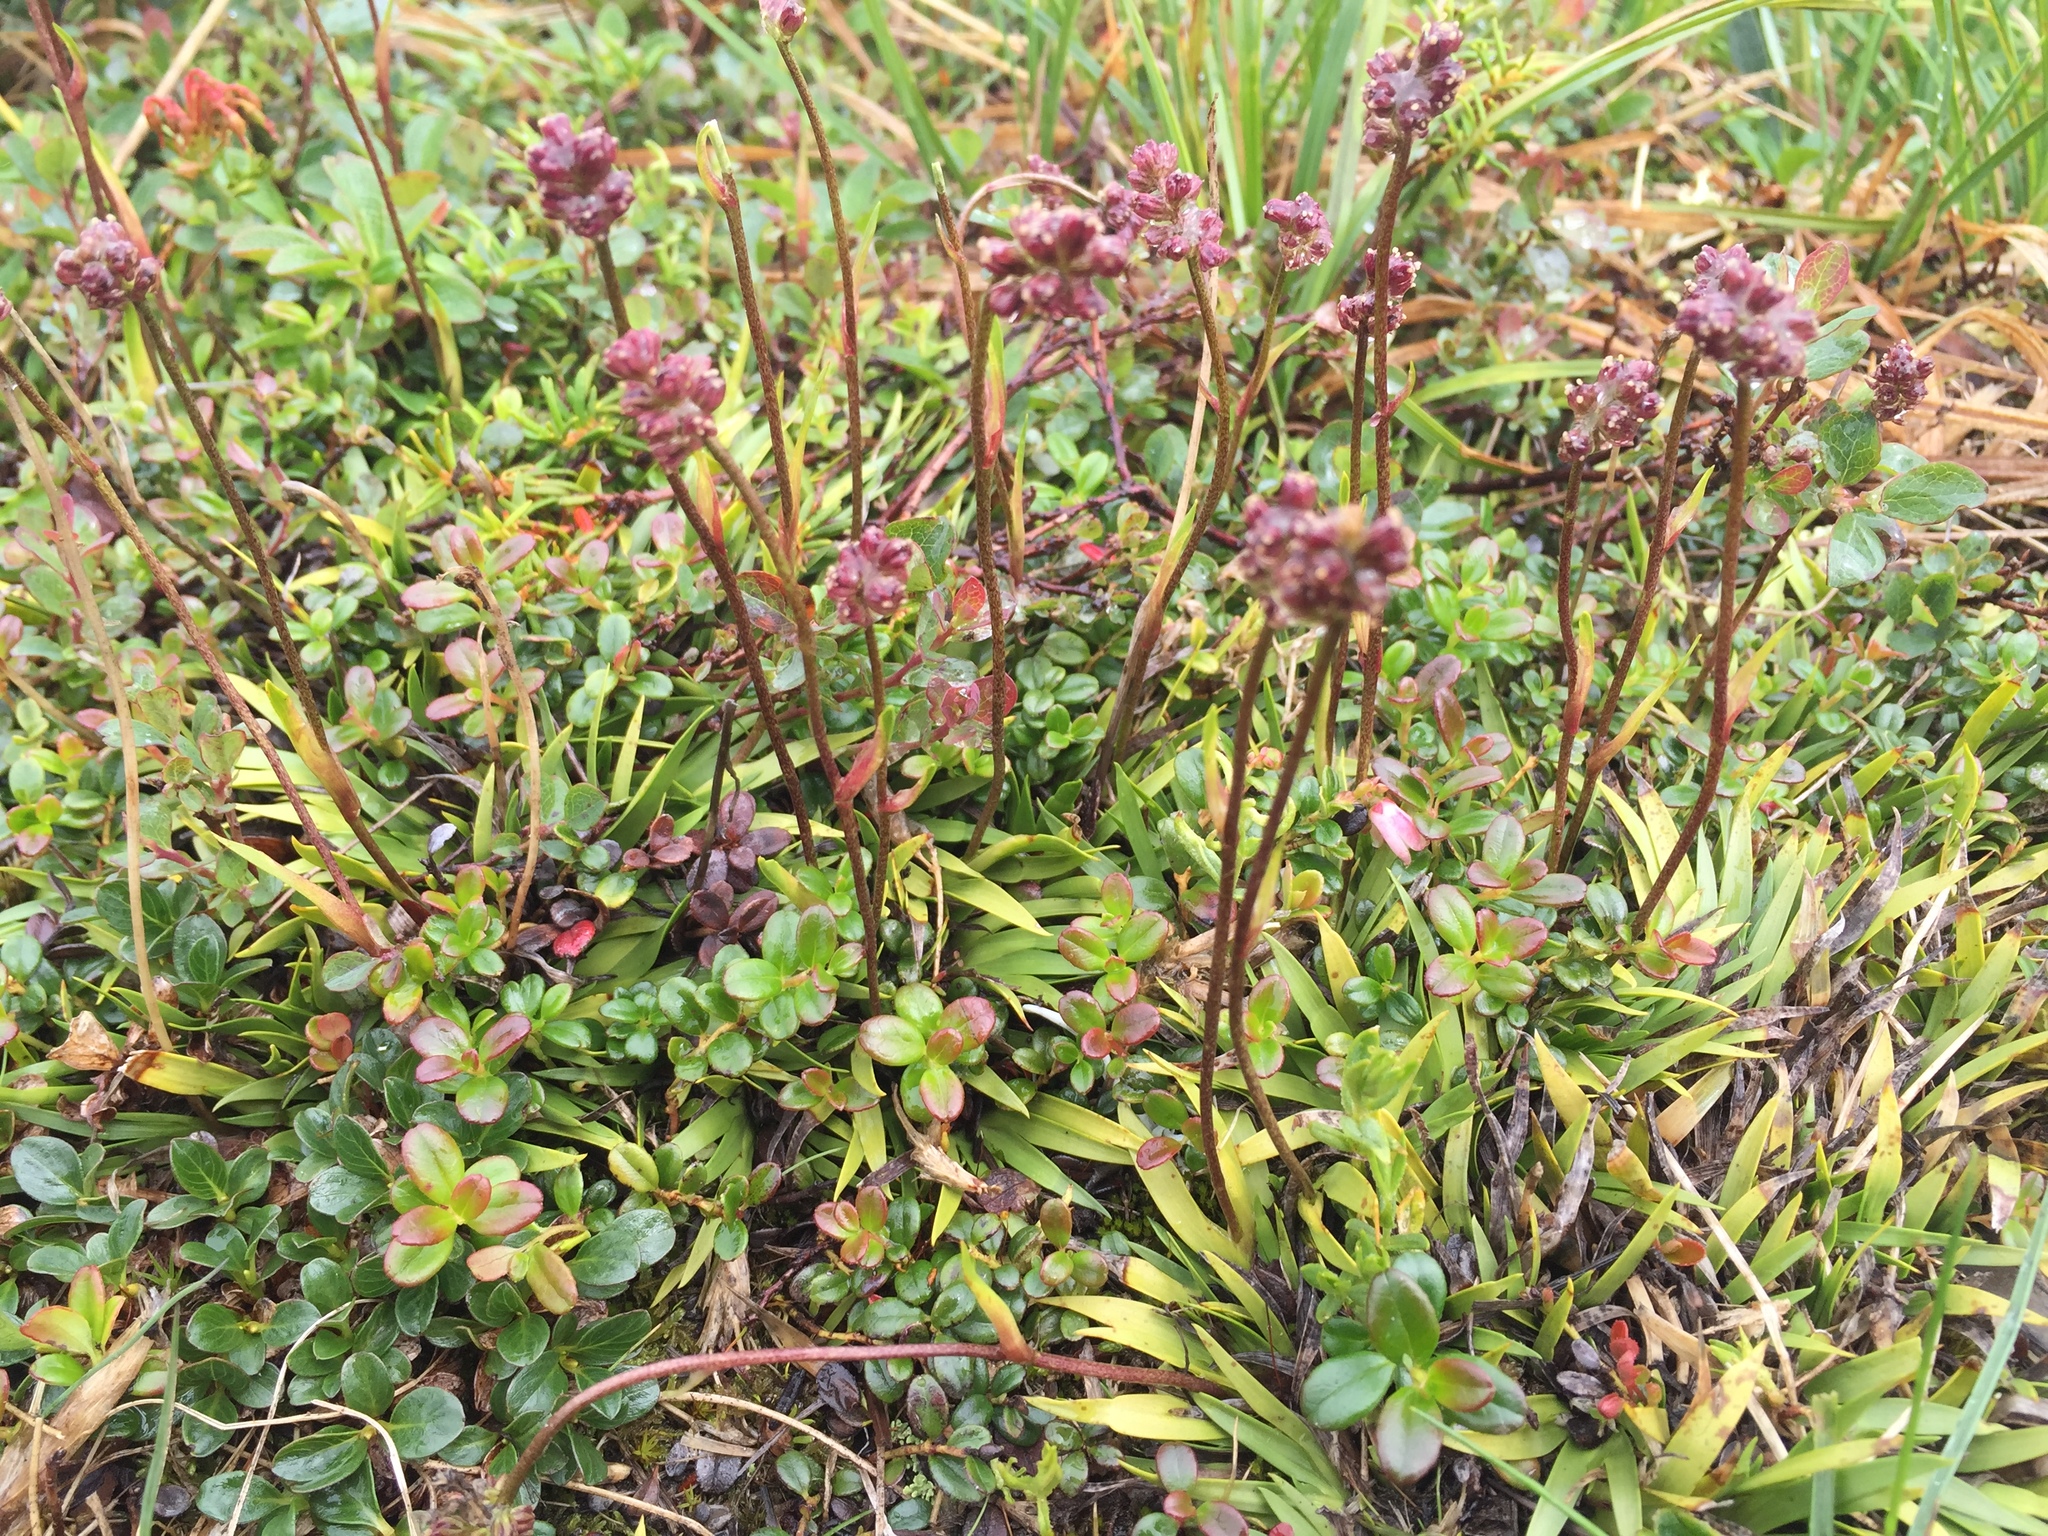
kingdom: Plantae
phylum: Tracheophyta
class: Liliopsida
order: Alismatales
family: Tofieldiaceae
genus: Tofieldia
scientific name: Tofieldia coccinea
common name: Northern false asphodel
